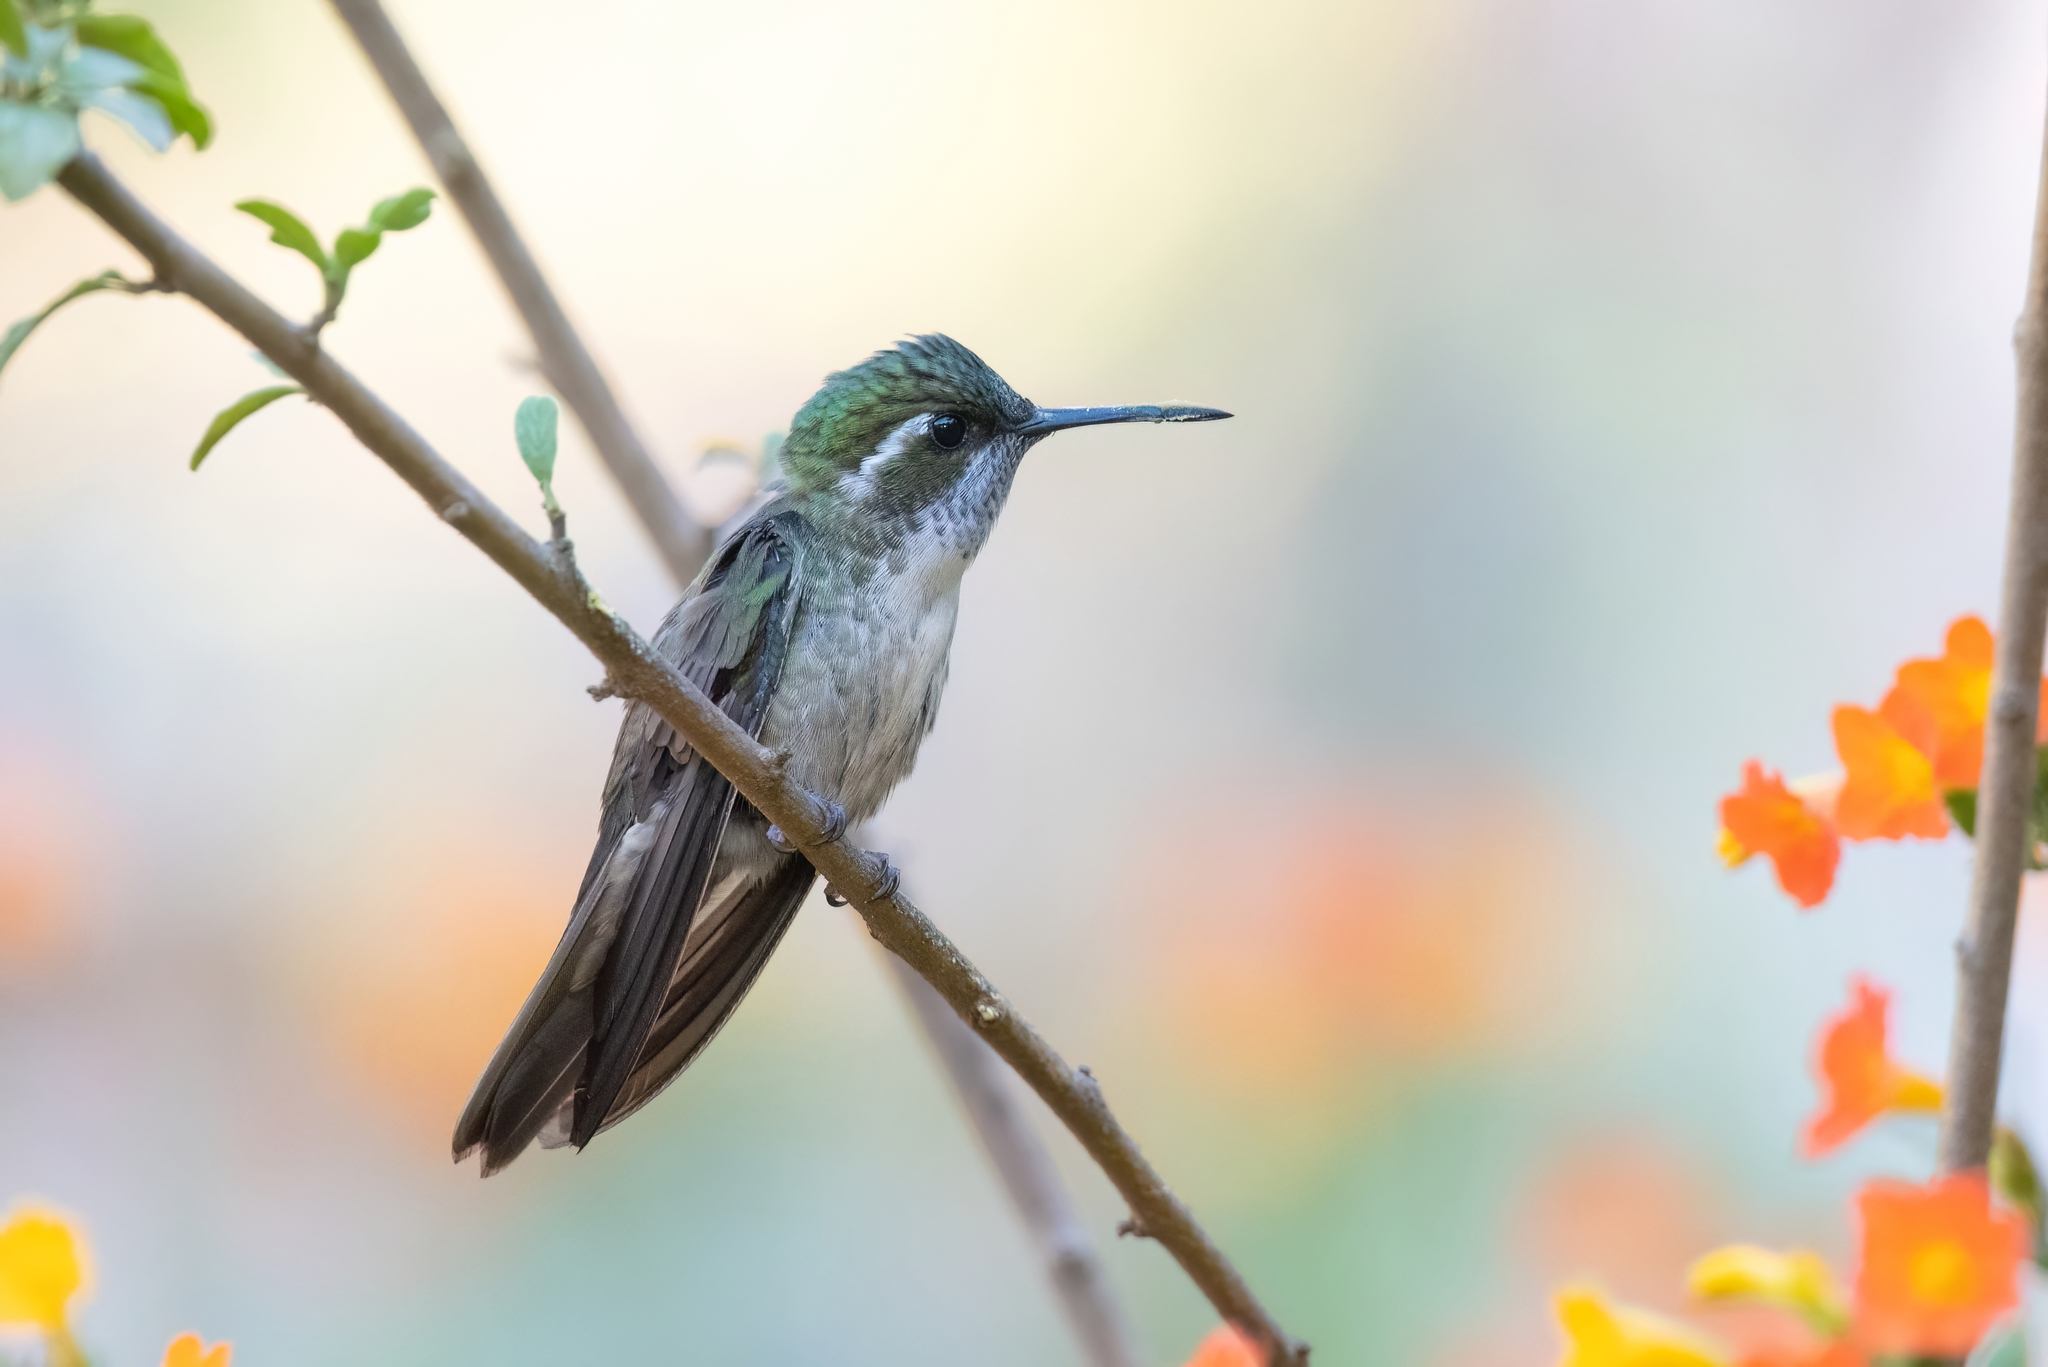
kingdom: Animalia
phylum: Chordata
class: Aves
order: Apodiformes
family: Trochilidae
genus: Lampornis
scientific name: Lampornis viridipallens
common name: Green-throated mountain-gem
